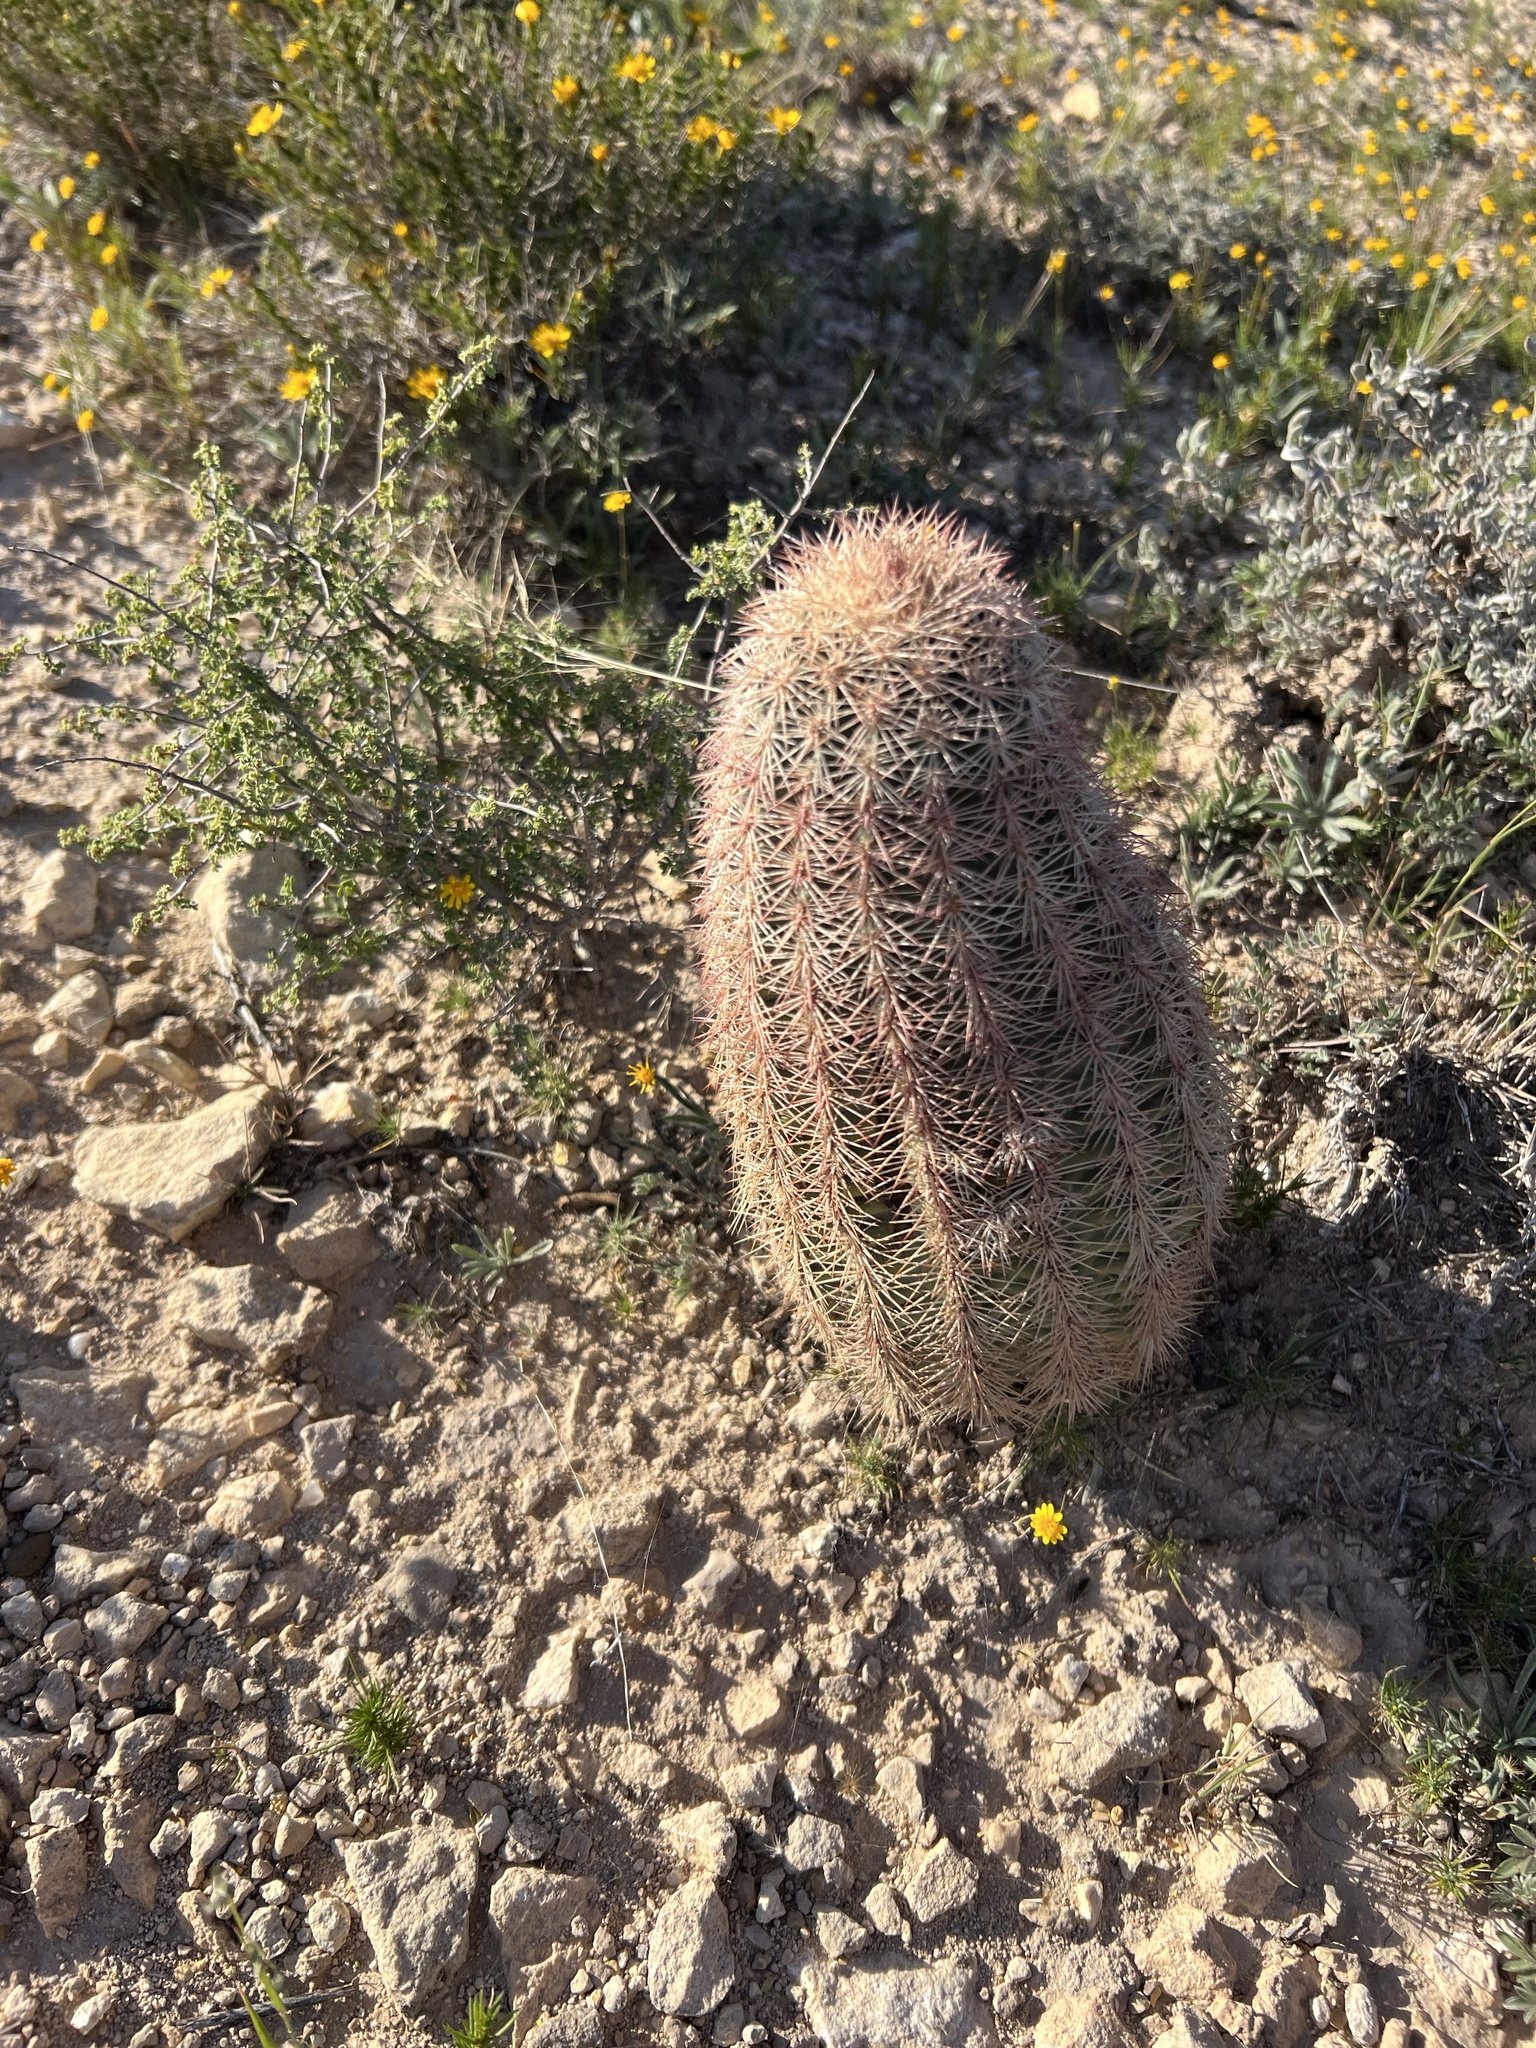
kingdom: Plantae
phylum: Tracheophyta
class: Magnoliopsida
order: Caryophyllales
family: Cactaceae
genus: Echinocereus
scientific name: Echinocereus dasyacanthus
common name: Spiny hedgehog cactus
